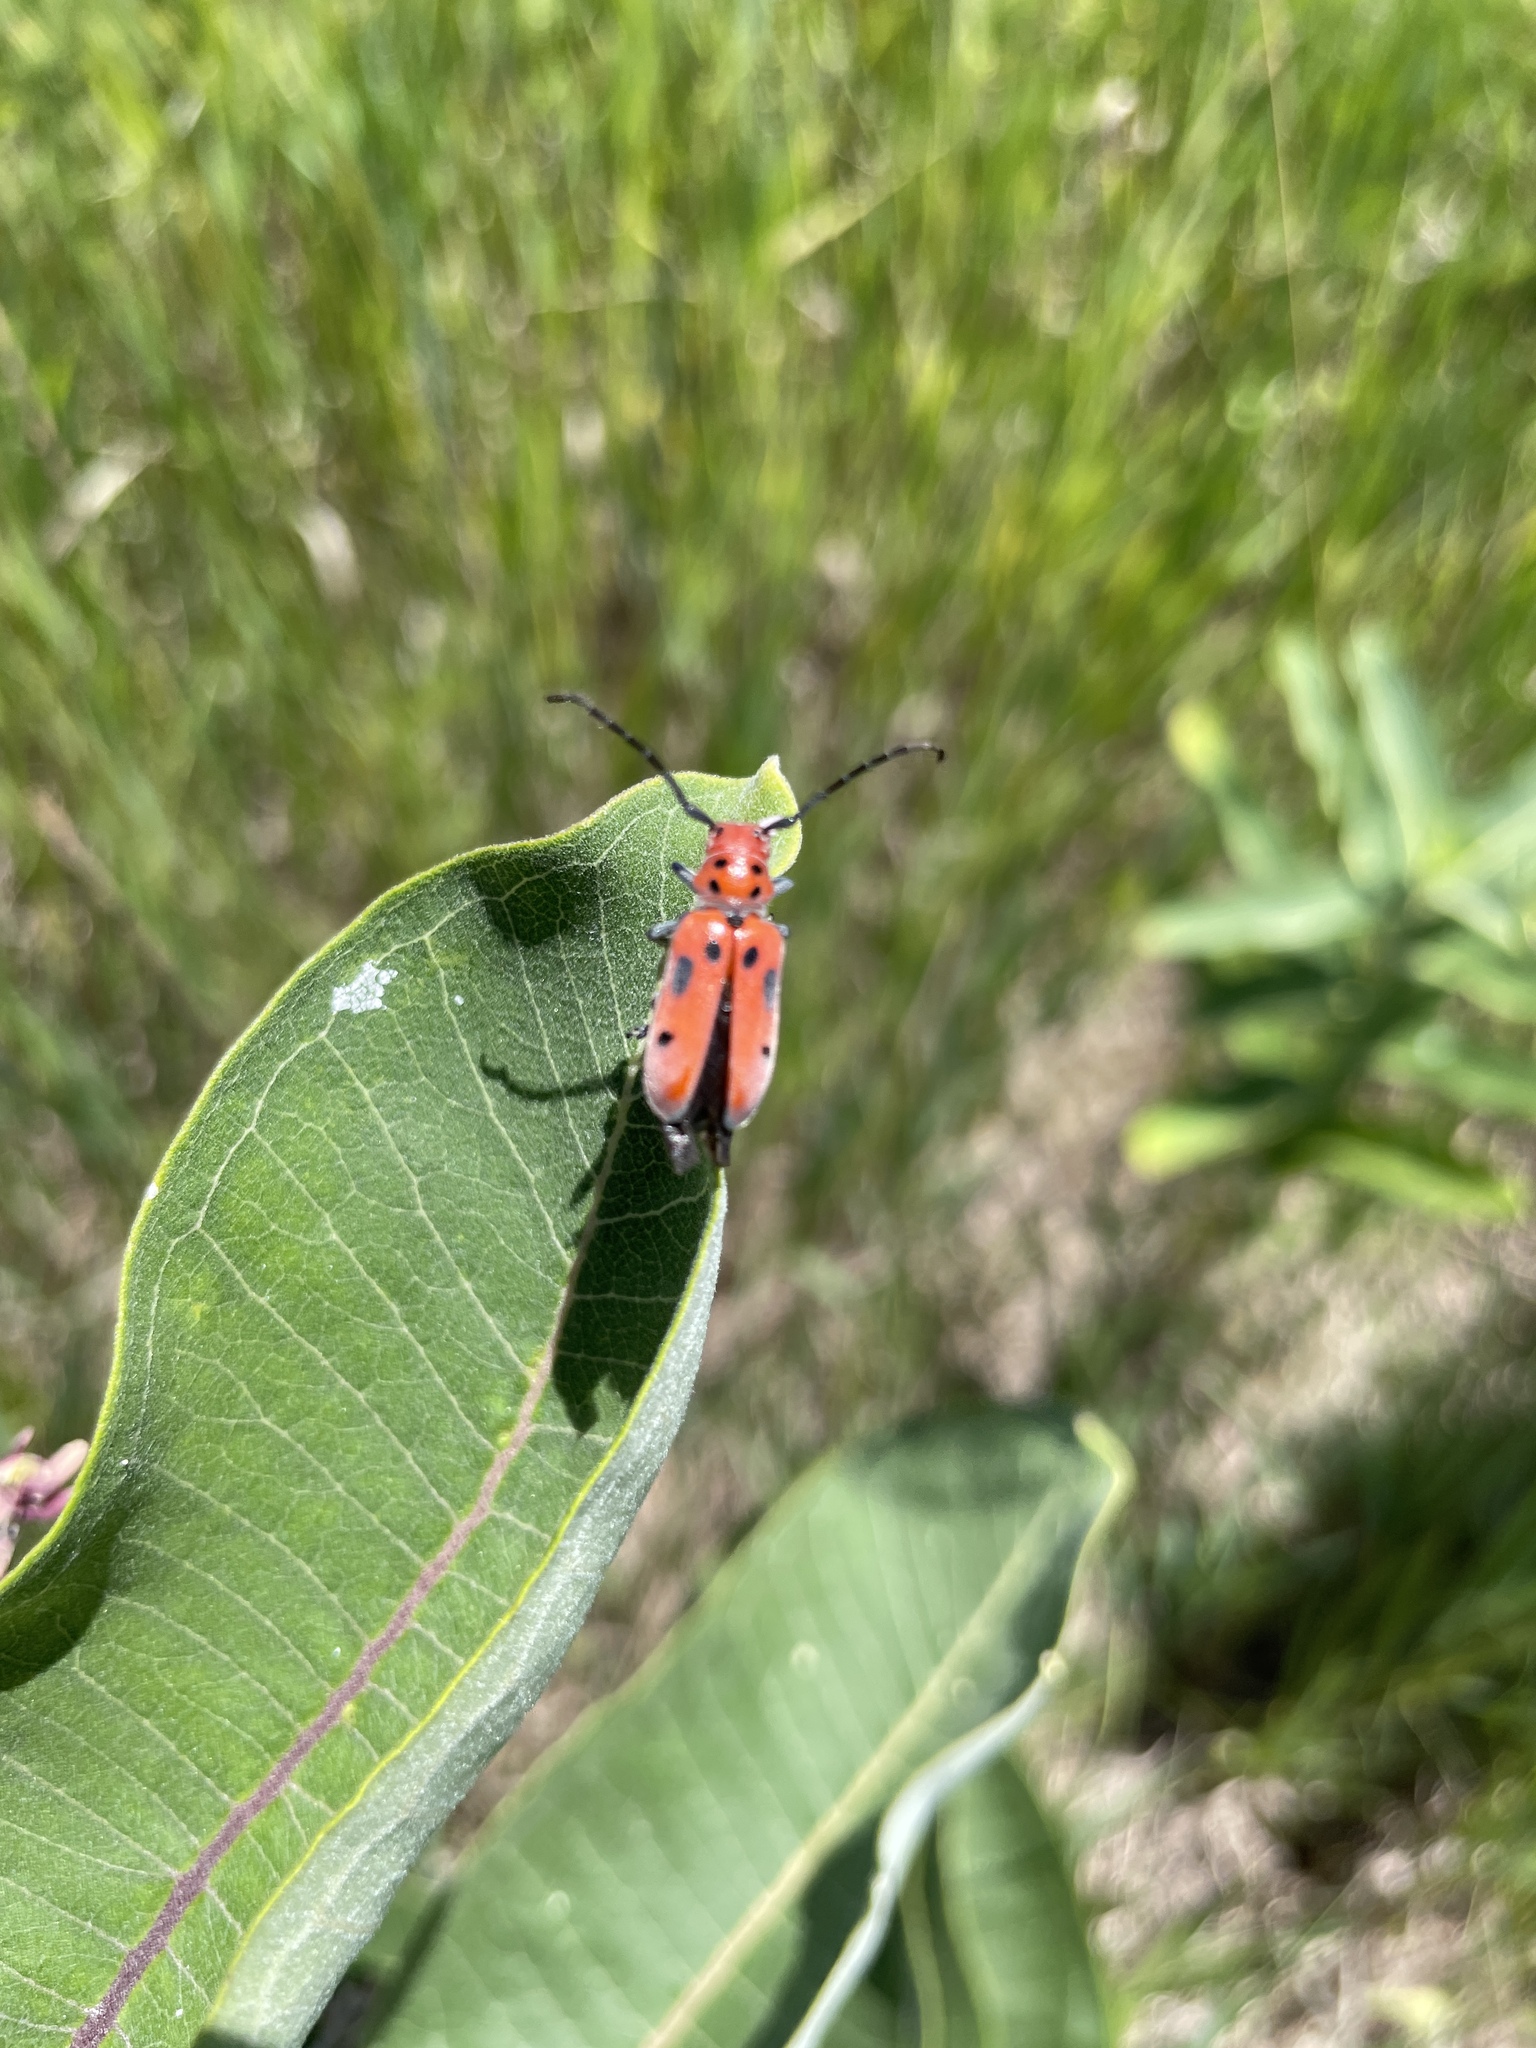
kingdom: Animalia
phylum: Arthropoda
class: Insecta
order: Coleoptera
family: Cerambycidae
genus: Tetraopes
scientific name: Tetraopes tetrophthalmus
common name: Red milkweed beetle
